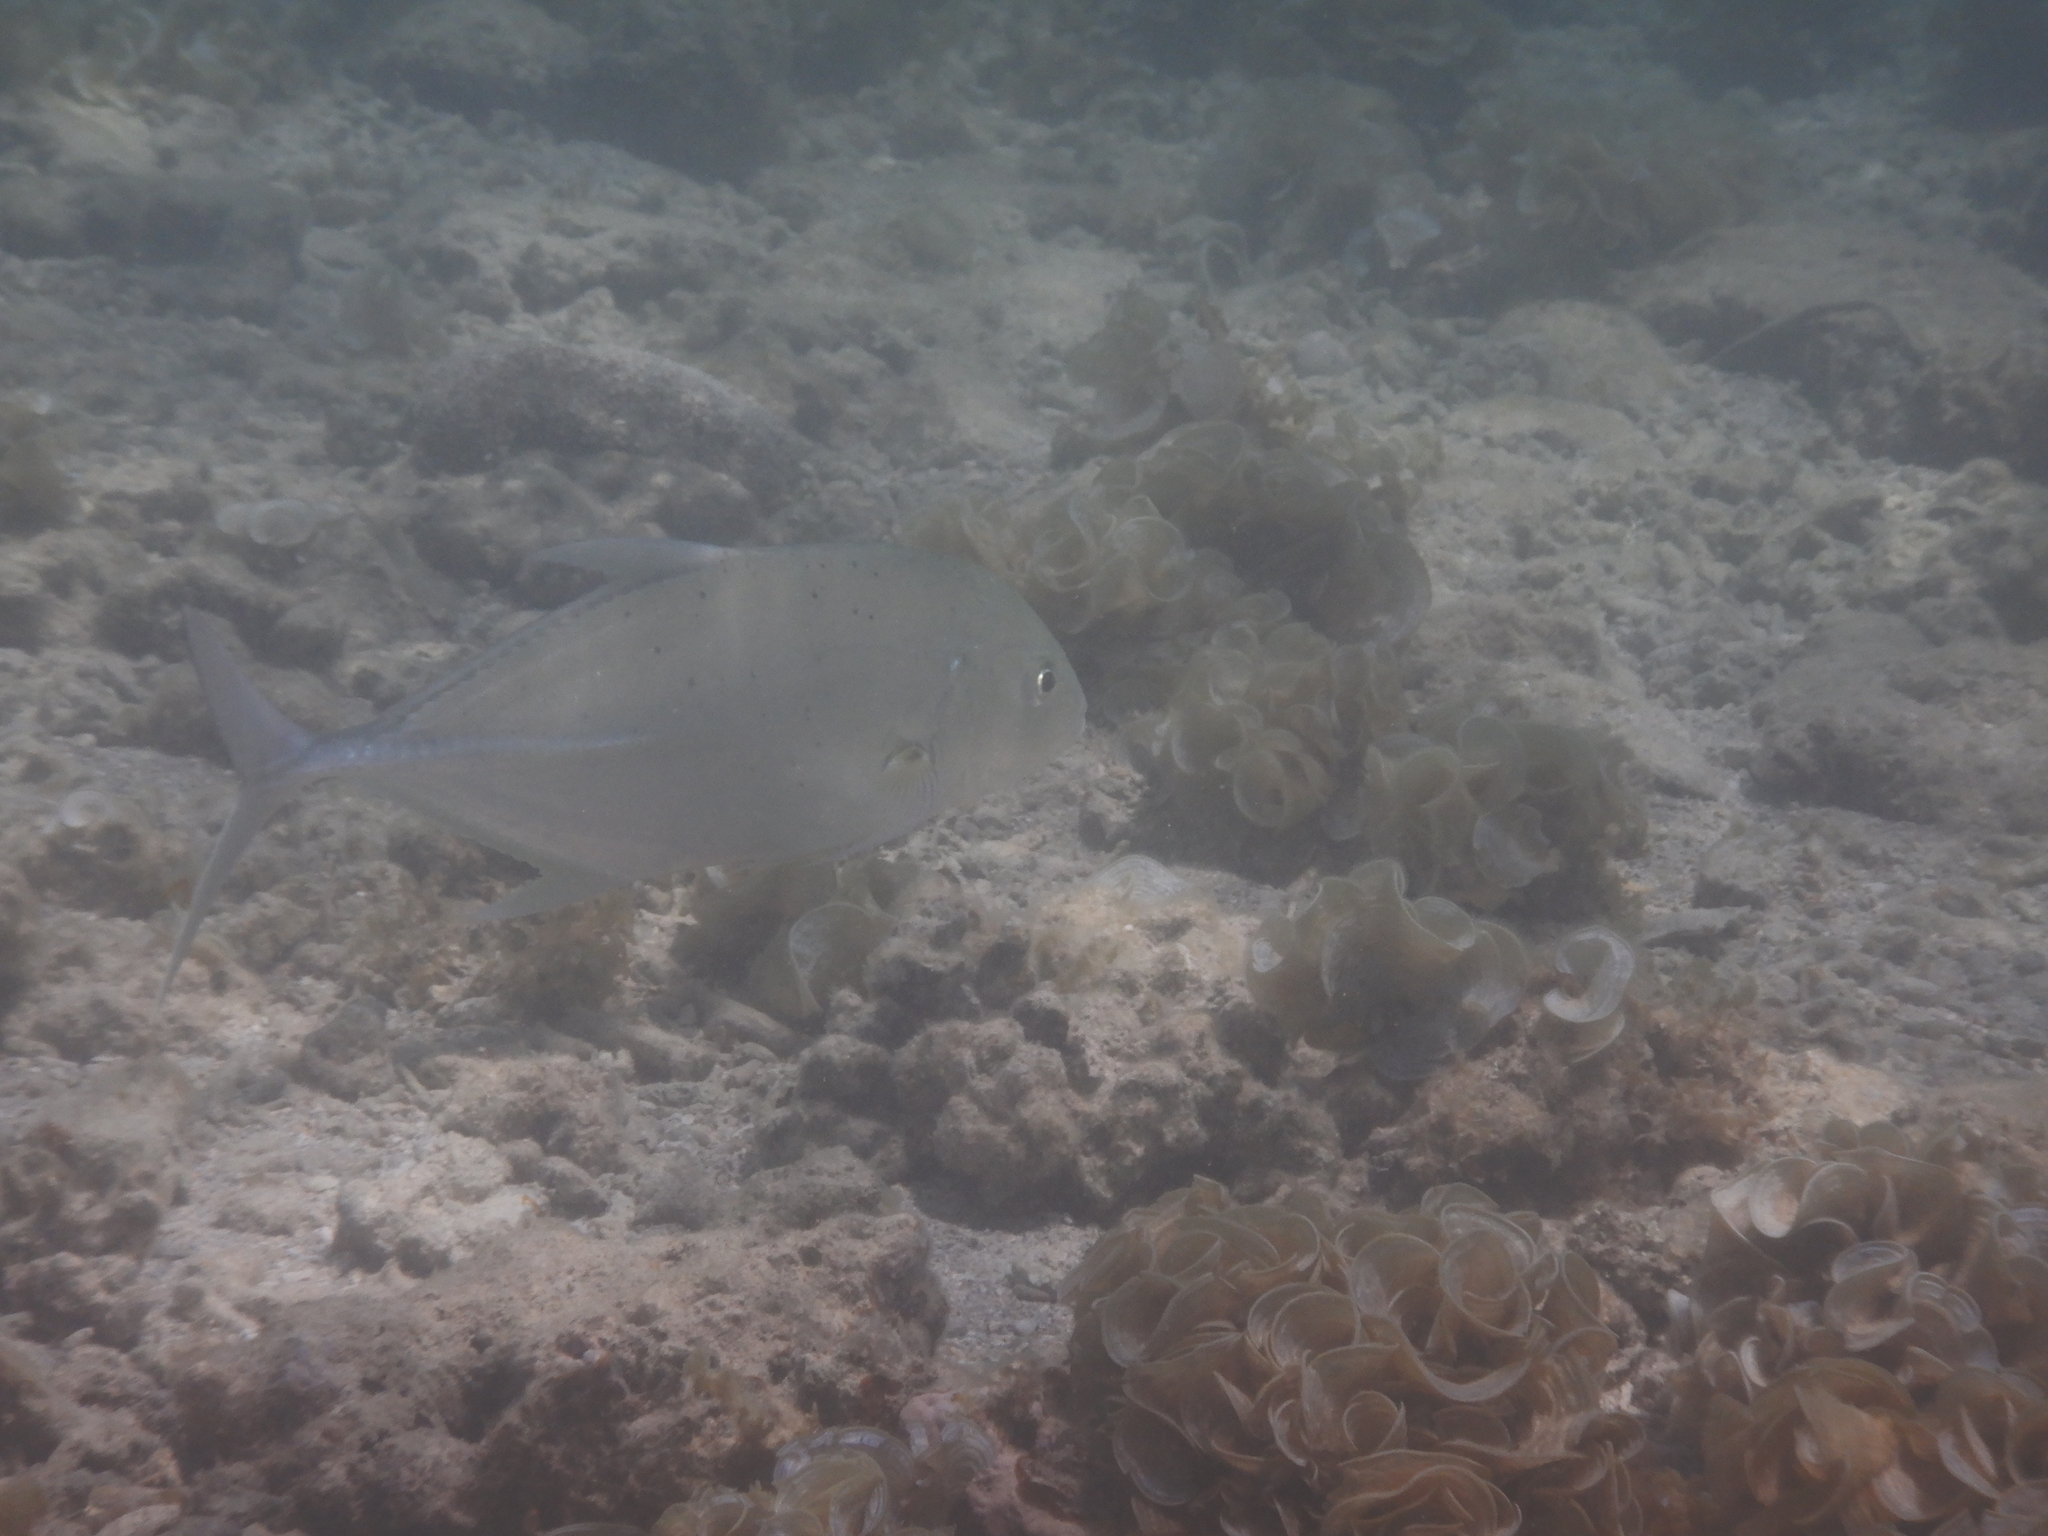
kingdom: Animalia
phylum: Chordata
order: Perciformes
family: Carangidae
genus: Caranx
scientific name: Caranx papuensis
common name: Brassy trevally
